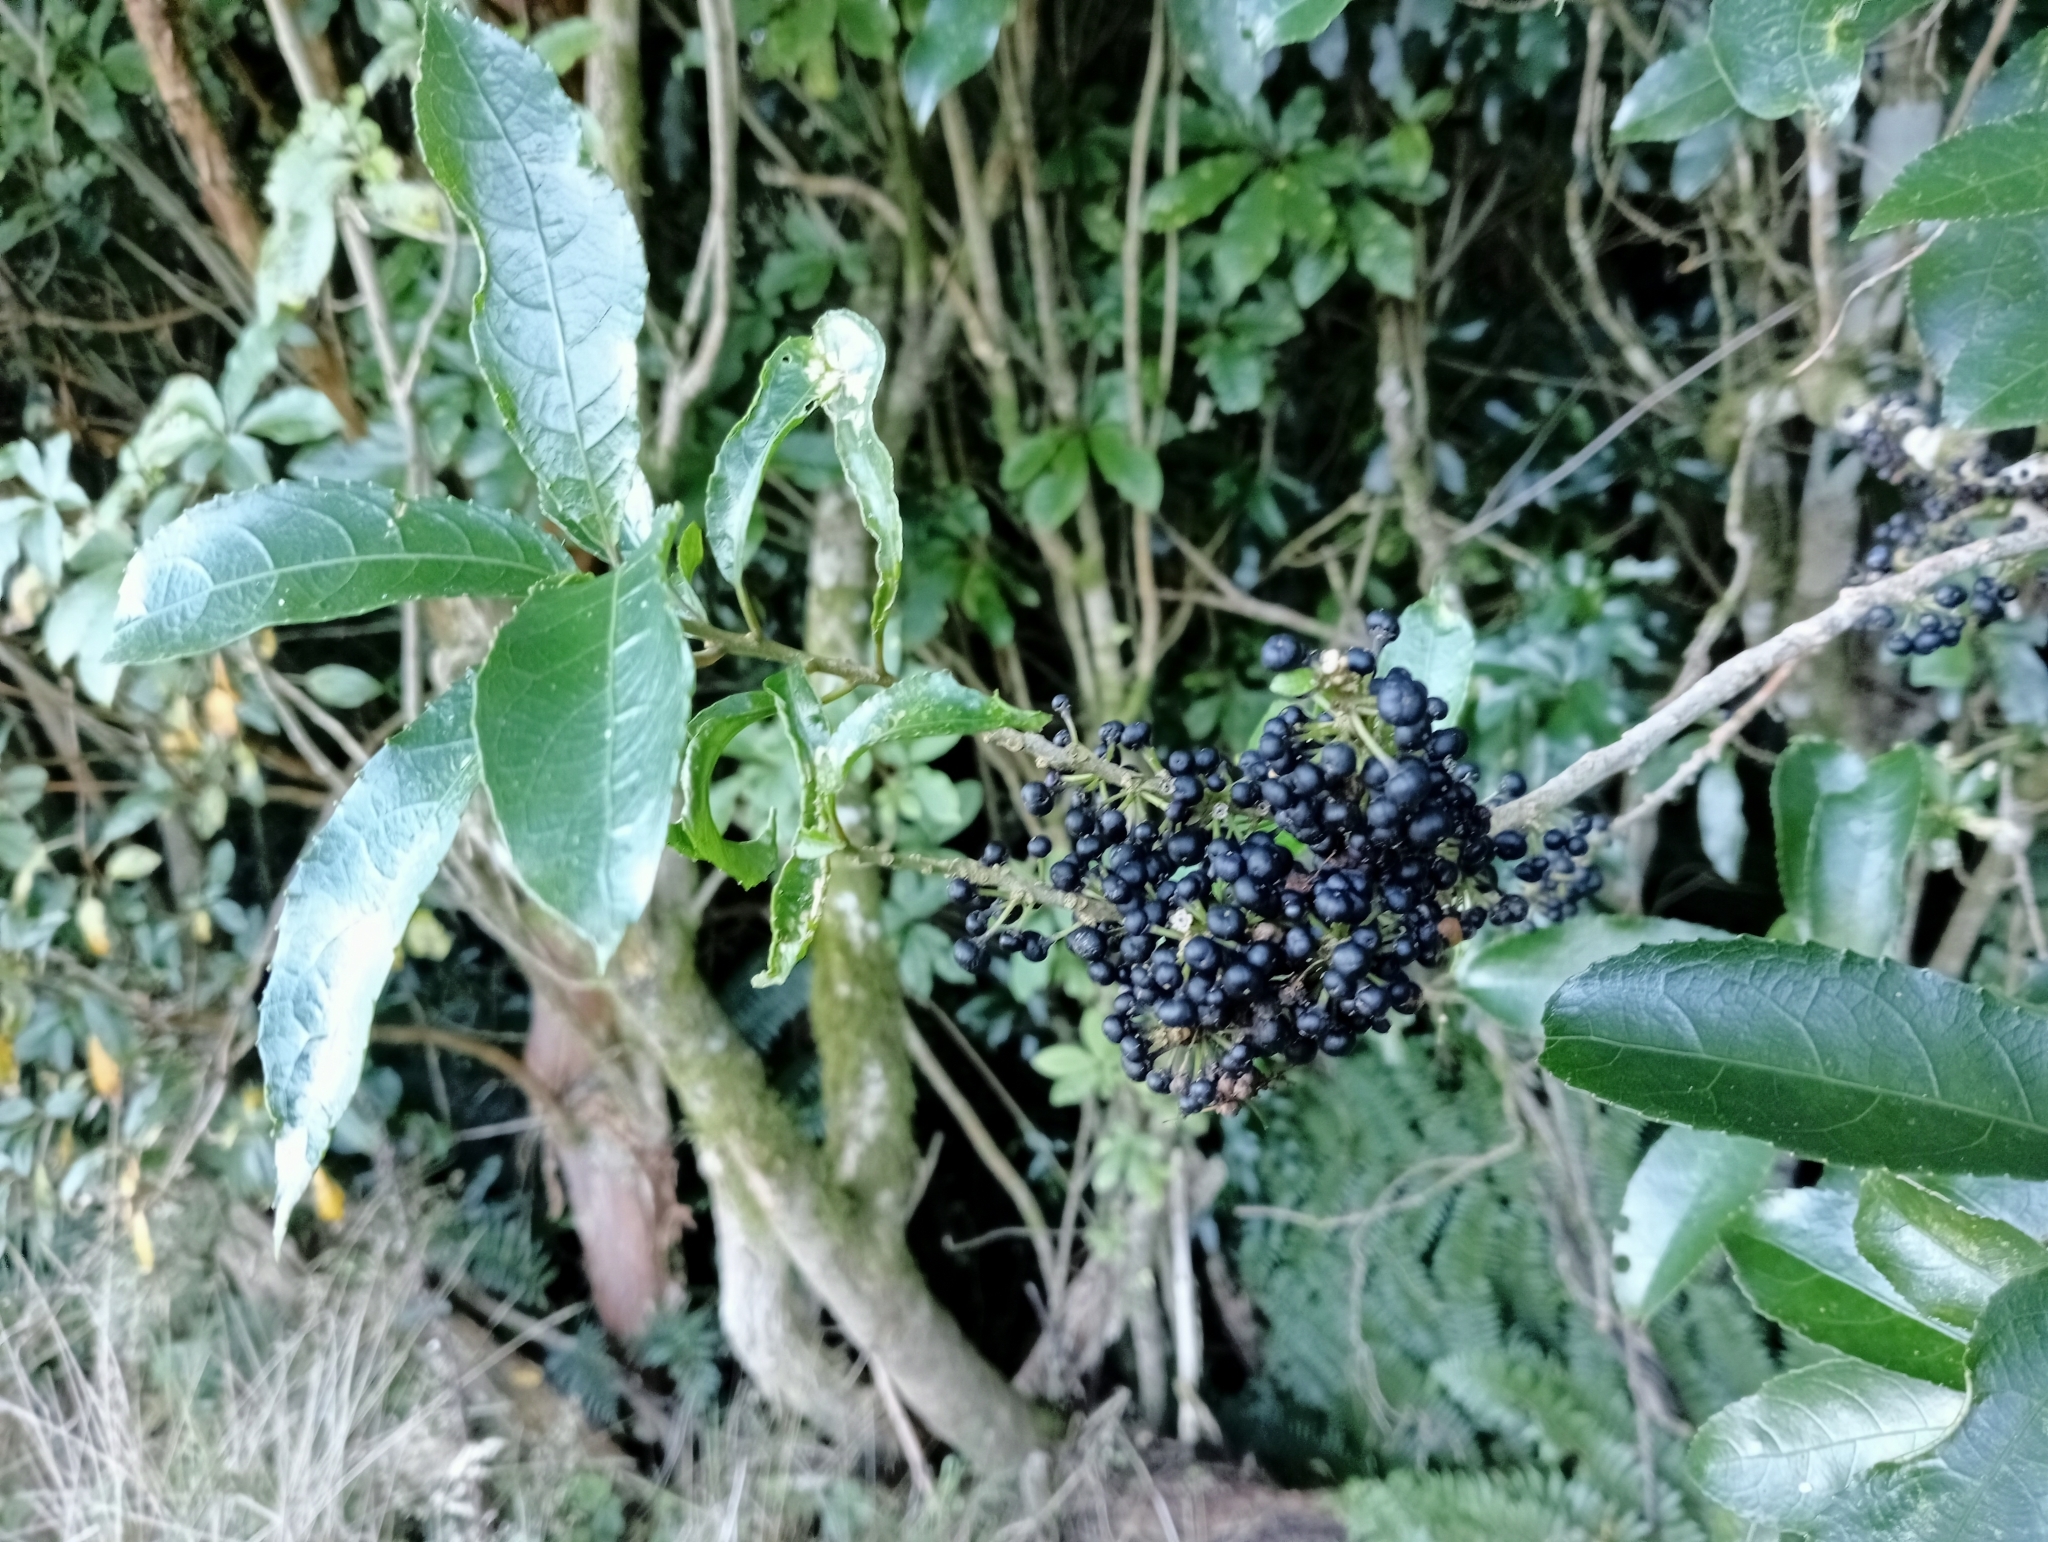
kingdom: Plantae
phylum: Tracheophyta
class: Magnoliopsida
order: Malpighiales
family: Violaceae
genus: Melicytus
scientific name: Melicytus ramiflorus
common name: Mahoe
